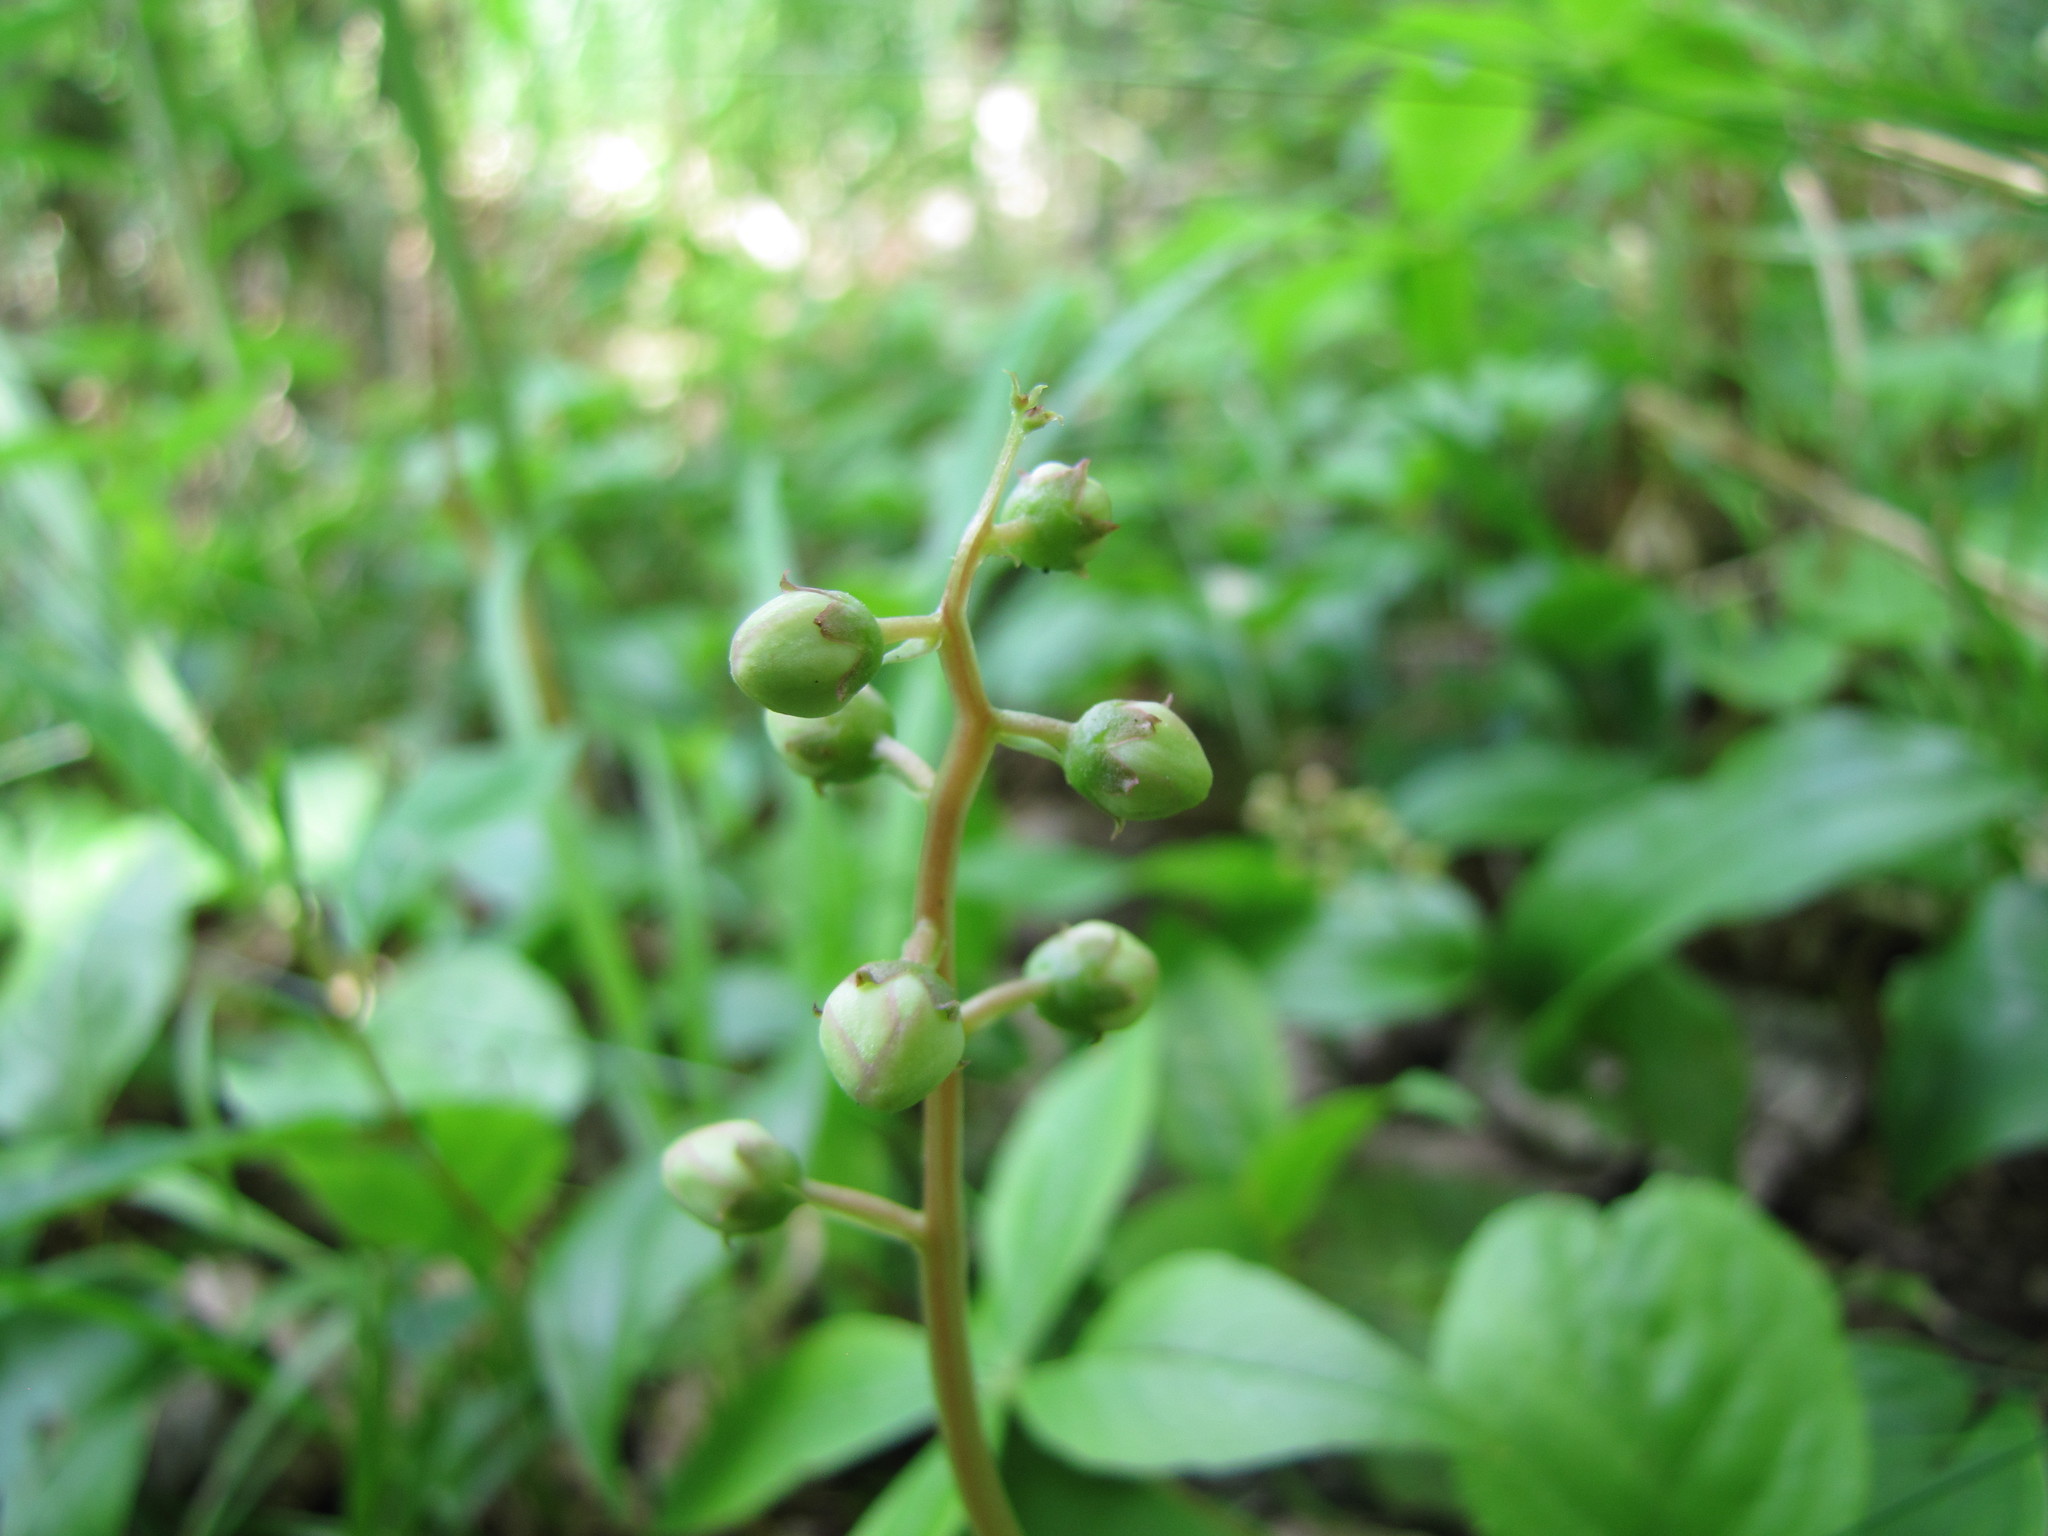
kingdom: Plantae
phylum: Tracheophyta
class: Magnoliopsida
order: Ericales
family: Ericaceae
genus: Pyrola
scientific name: Pyrola elliptica
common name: Shinleaf
